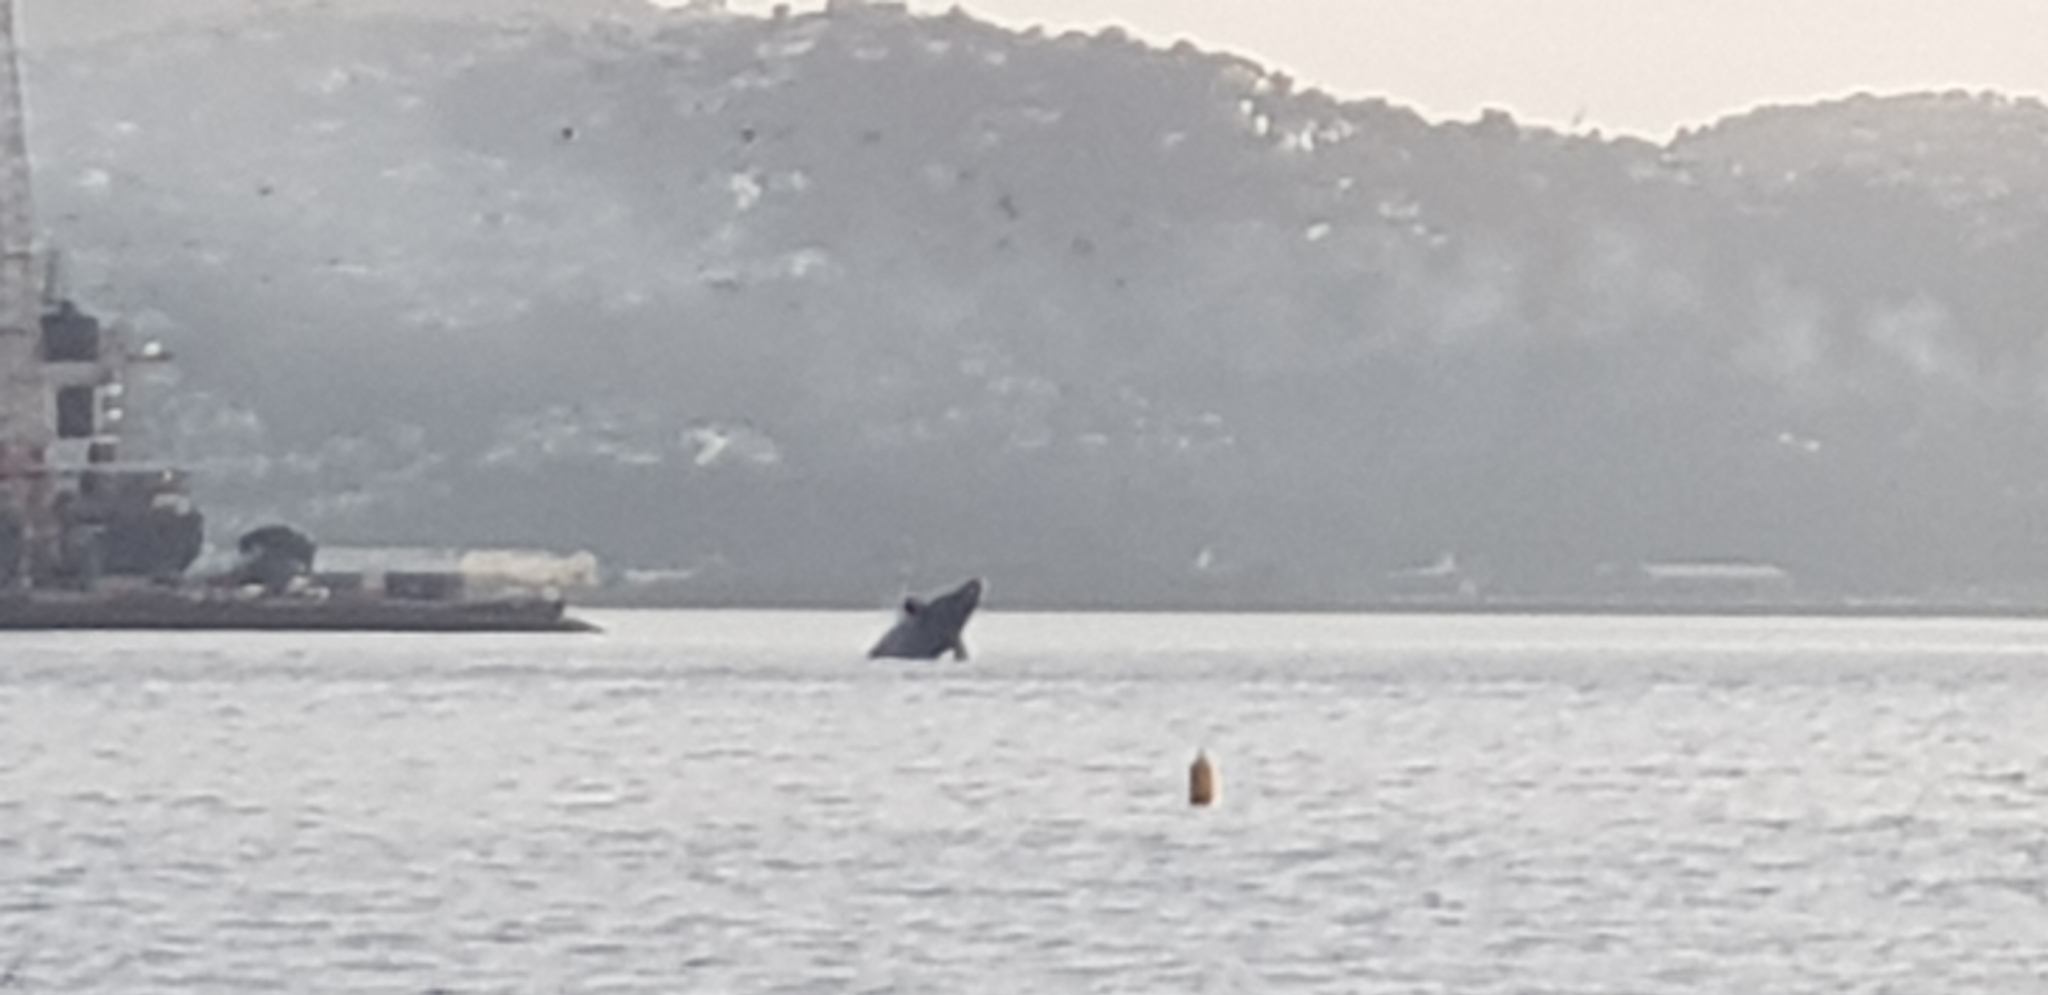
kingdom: Animalia
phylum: Chordata
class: Mammalia
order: Cetacea
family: Balaenidae
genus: Eubalaena
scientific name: Eubalaena australis
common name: Southern right whale
